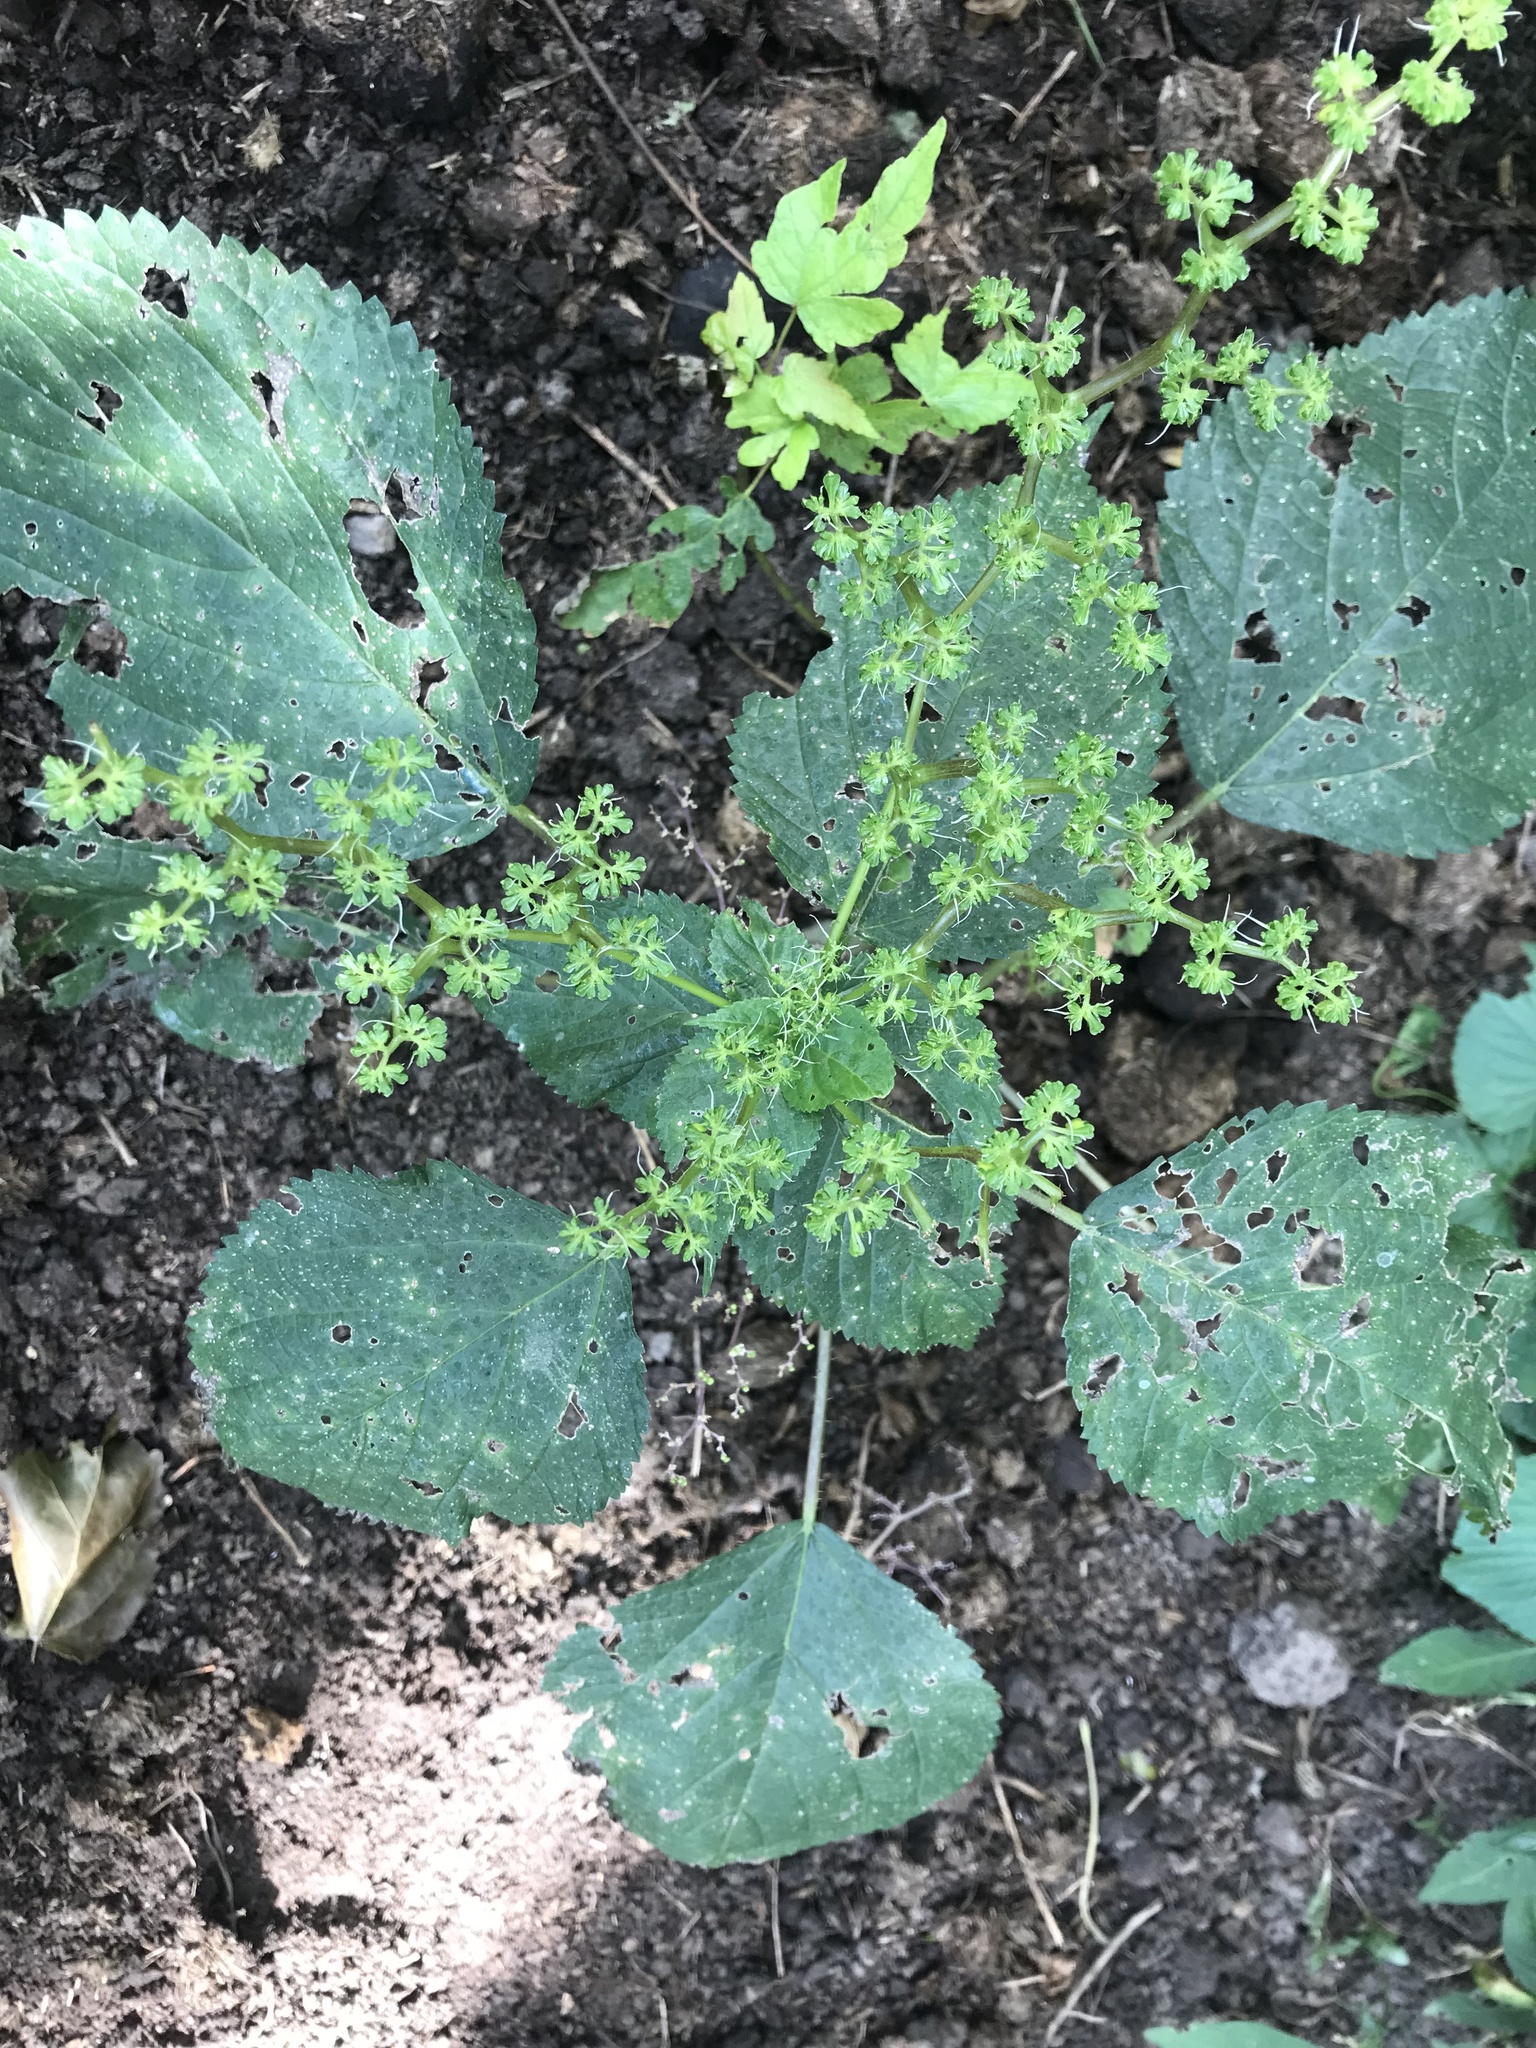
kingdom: Plantae
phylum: Tracheophyta
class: Magnoliopsida
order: Rosales
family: Urticaceae
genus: Laportea
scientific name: Laportea canadensis
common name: Canada nettle
